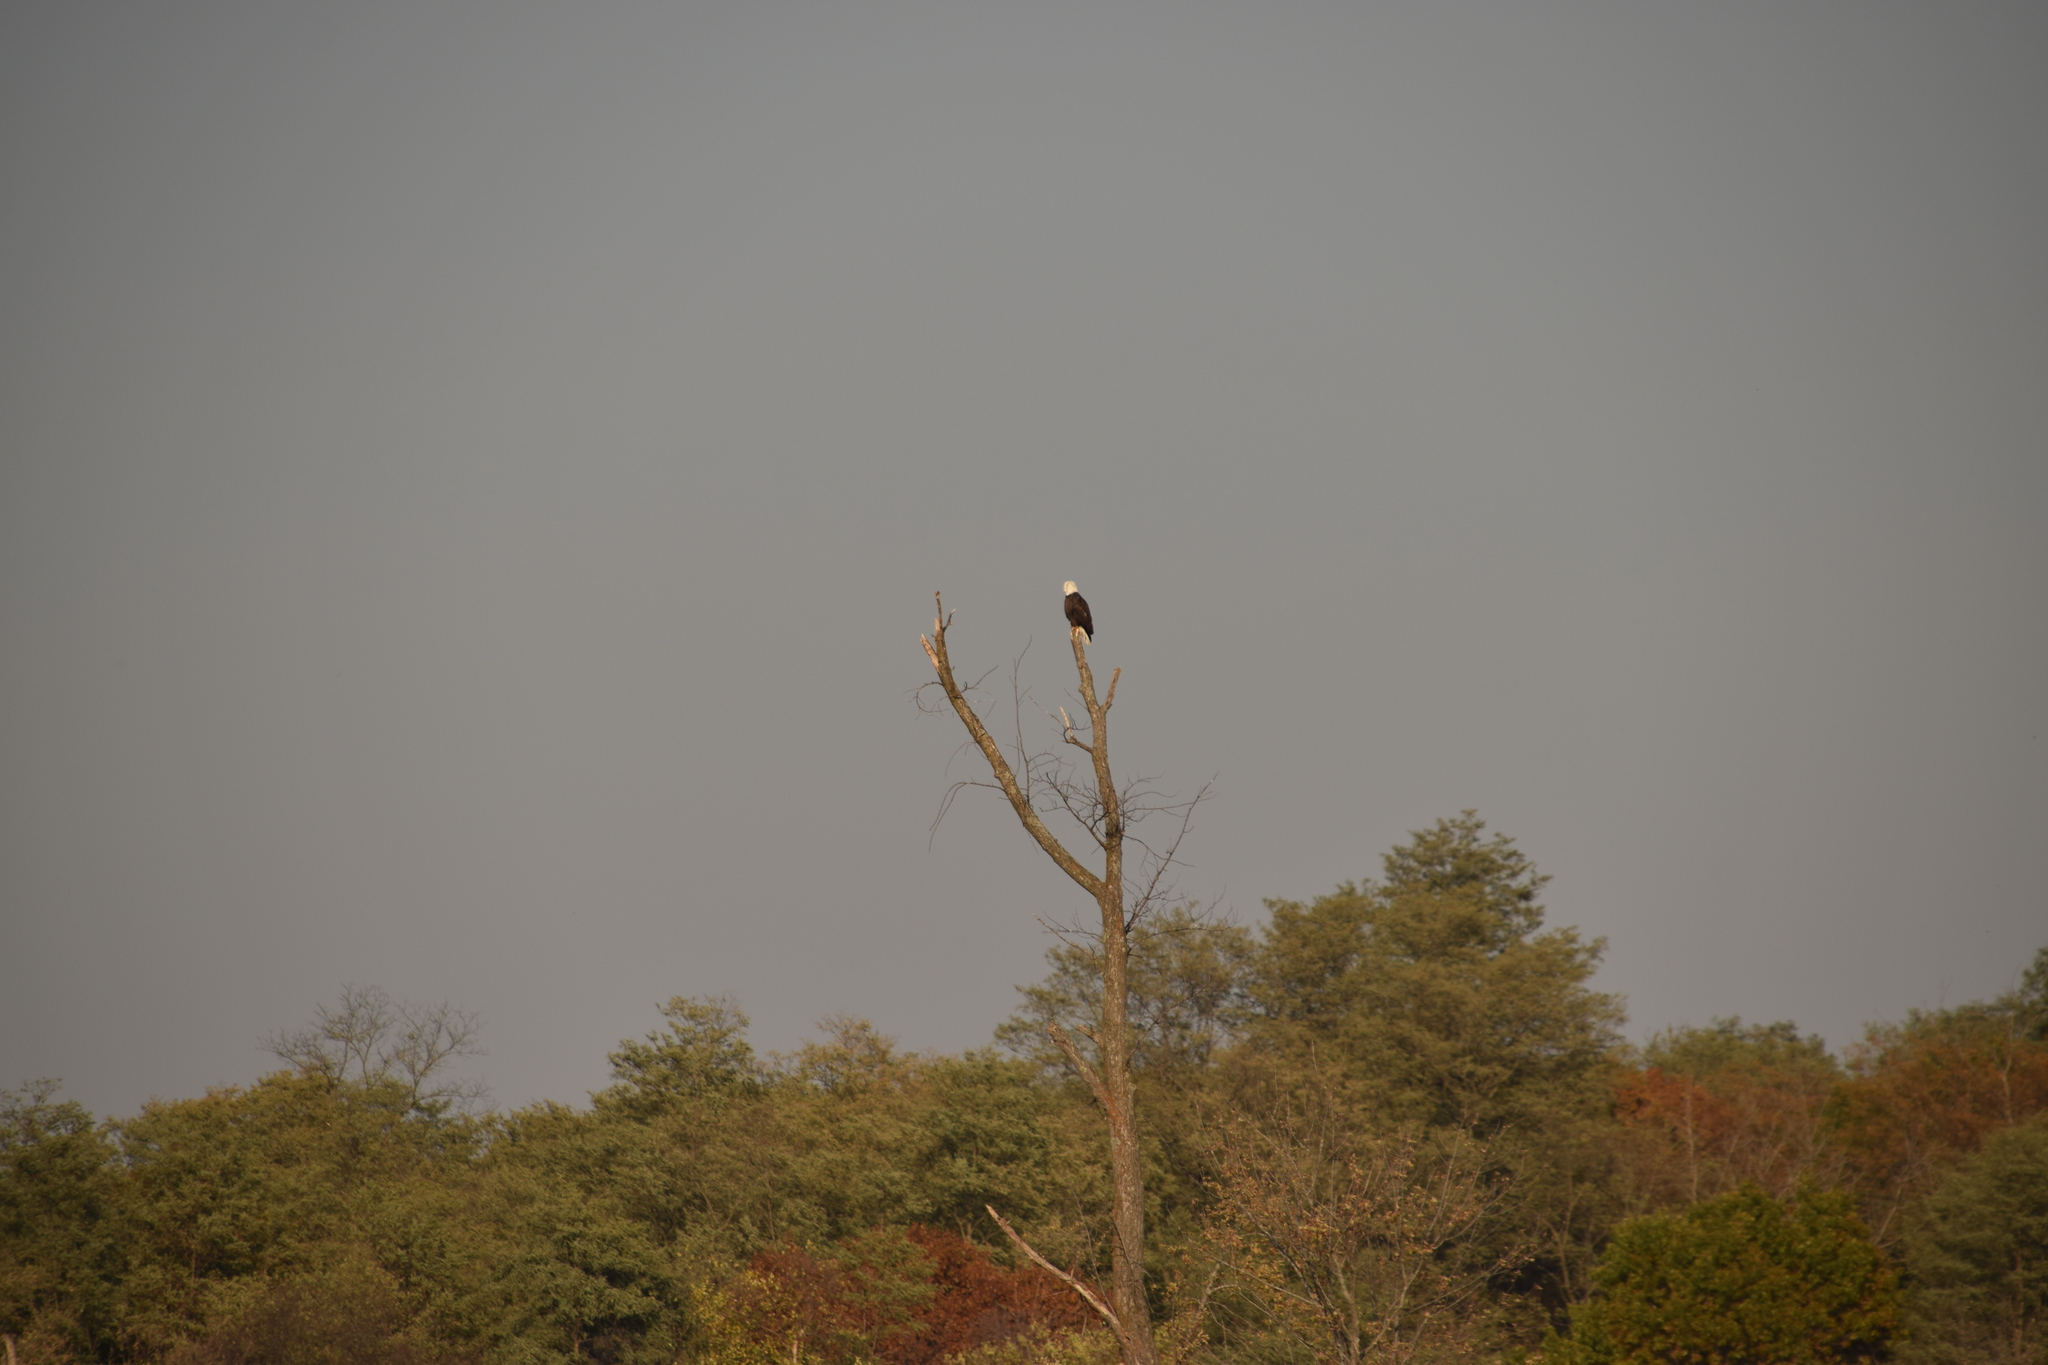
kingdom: Animalia
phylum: Chordata
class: Aves
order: Accipitriformes
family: Accipitridae
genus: Haliaeetus
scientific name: Haliaeetus leucocephalus
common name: Bald eagle
